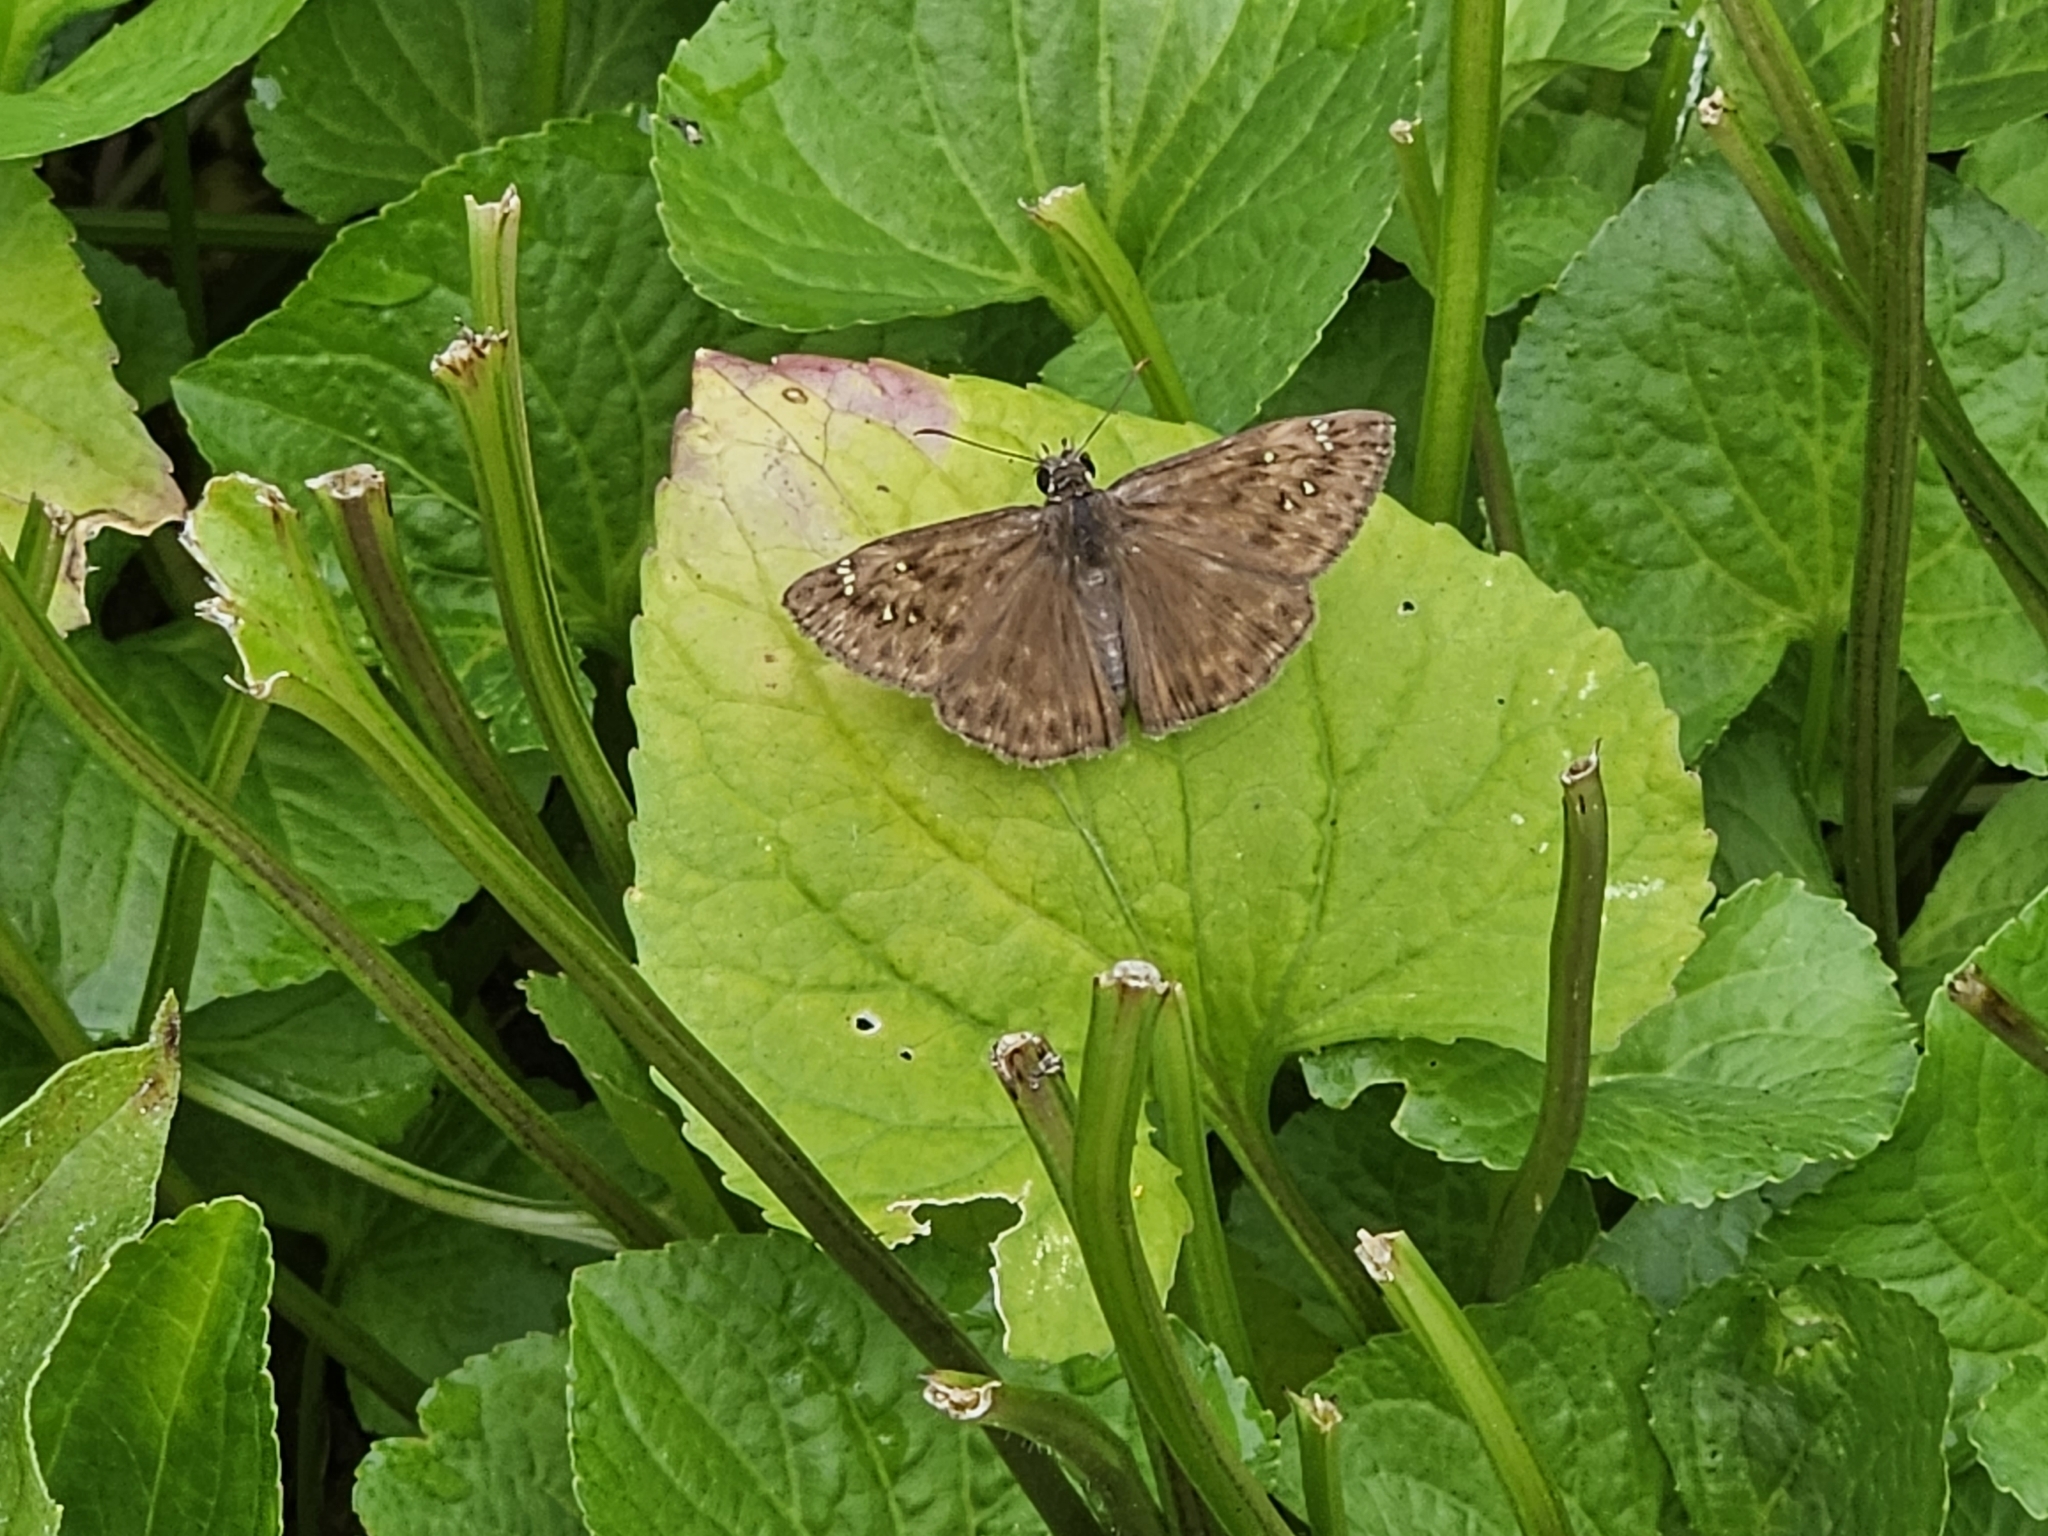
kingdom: Animalia
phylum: Arthropoda
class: Insecta
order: Lepidoptera
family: Hesperiidae
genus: Erynnis
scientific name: Erynnis horatius
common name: Horace's duskywing
